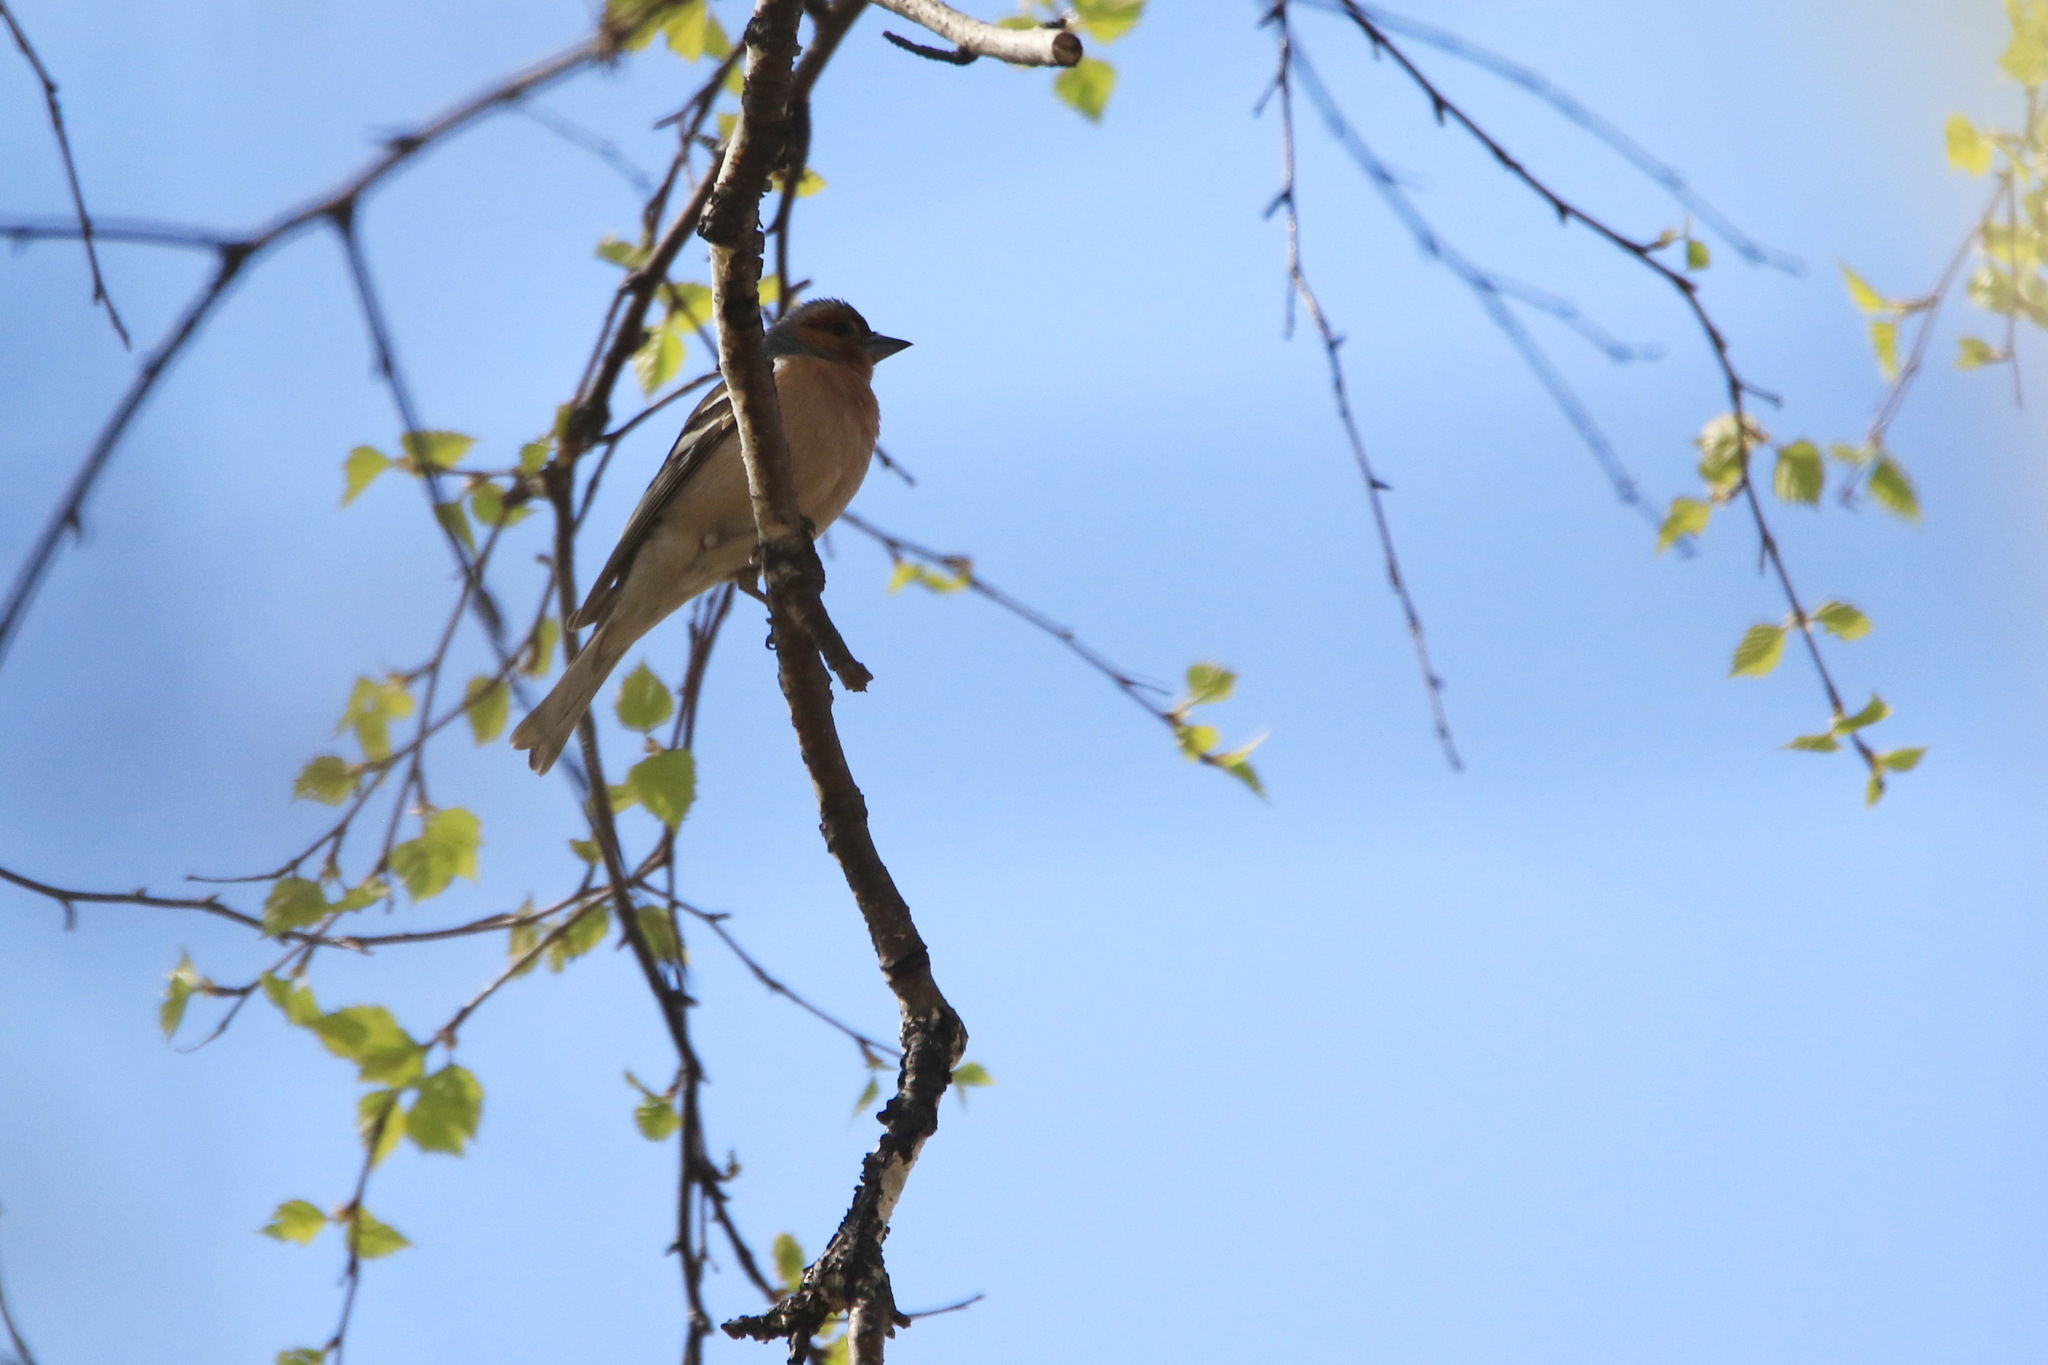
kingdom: Animalia
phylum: Chordata
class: Aves
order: Passeriformes
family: Fringillidae
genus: Fringilla
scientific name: Fringilla coelebs
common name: Common chaffinch
